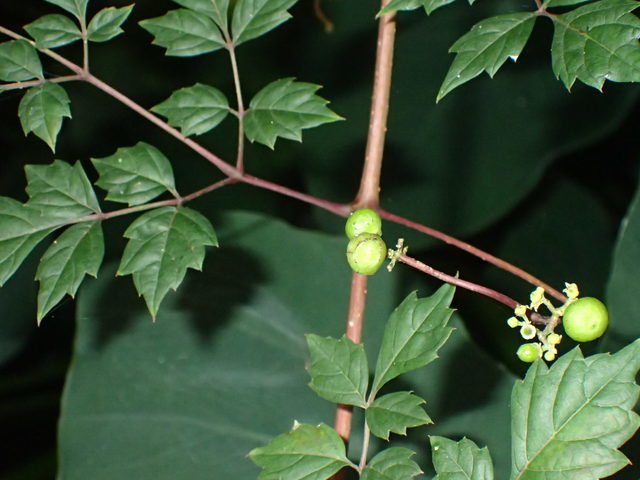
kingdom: Plantae
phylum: Tracheophyta
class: Magnoliopsida
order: Vitales
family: Vitaceae
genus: Nekemias
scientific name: Nekemias arborea
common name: Peppervine
